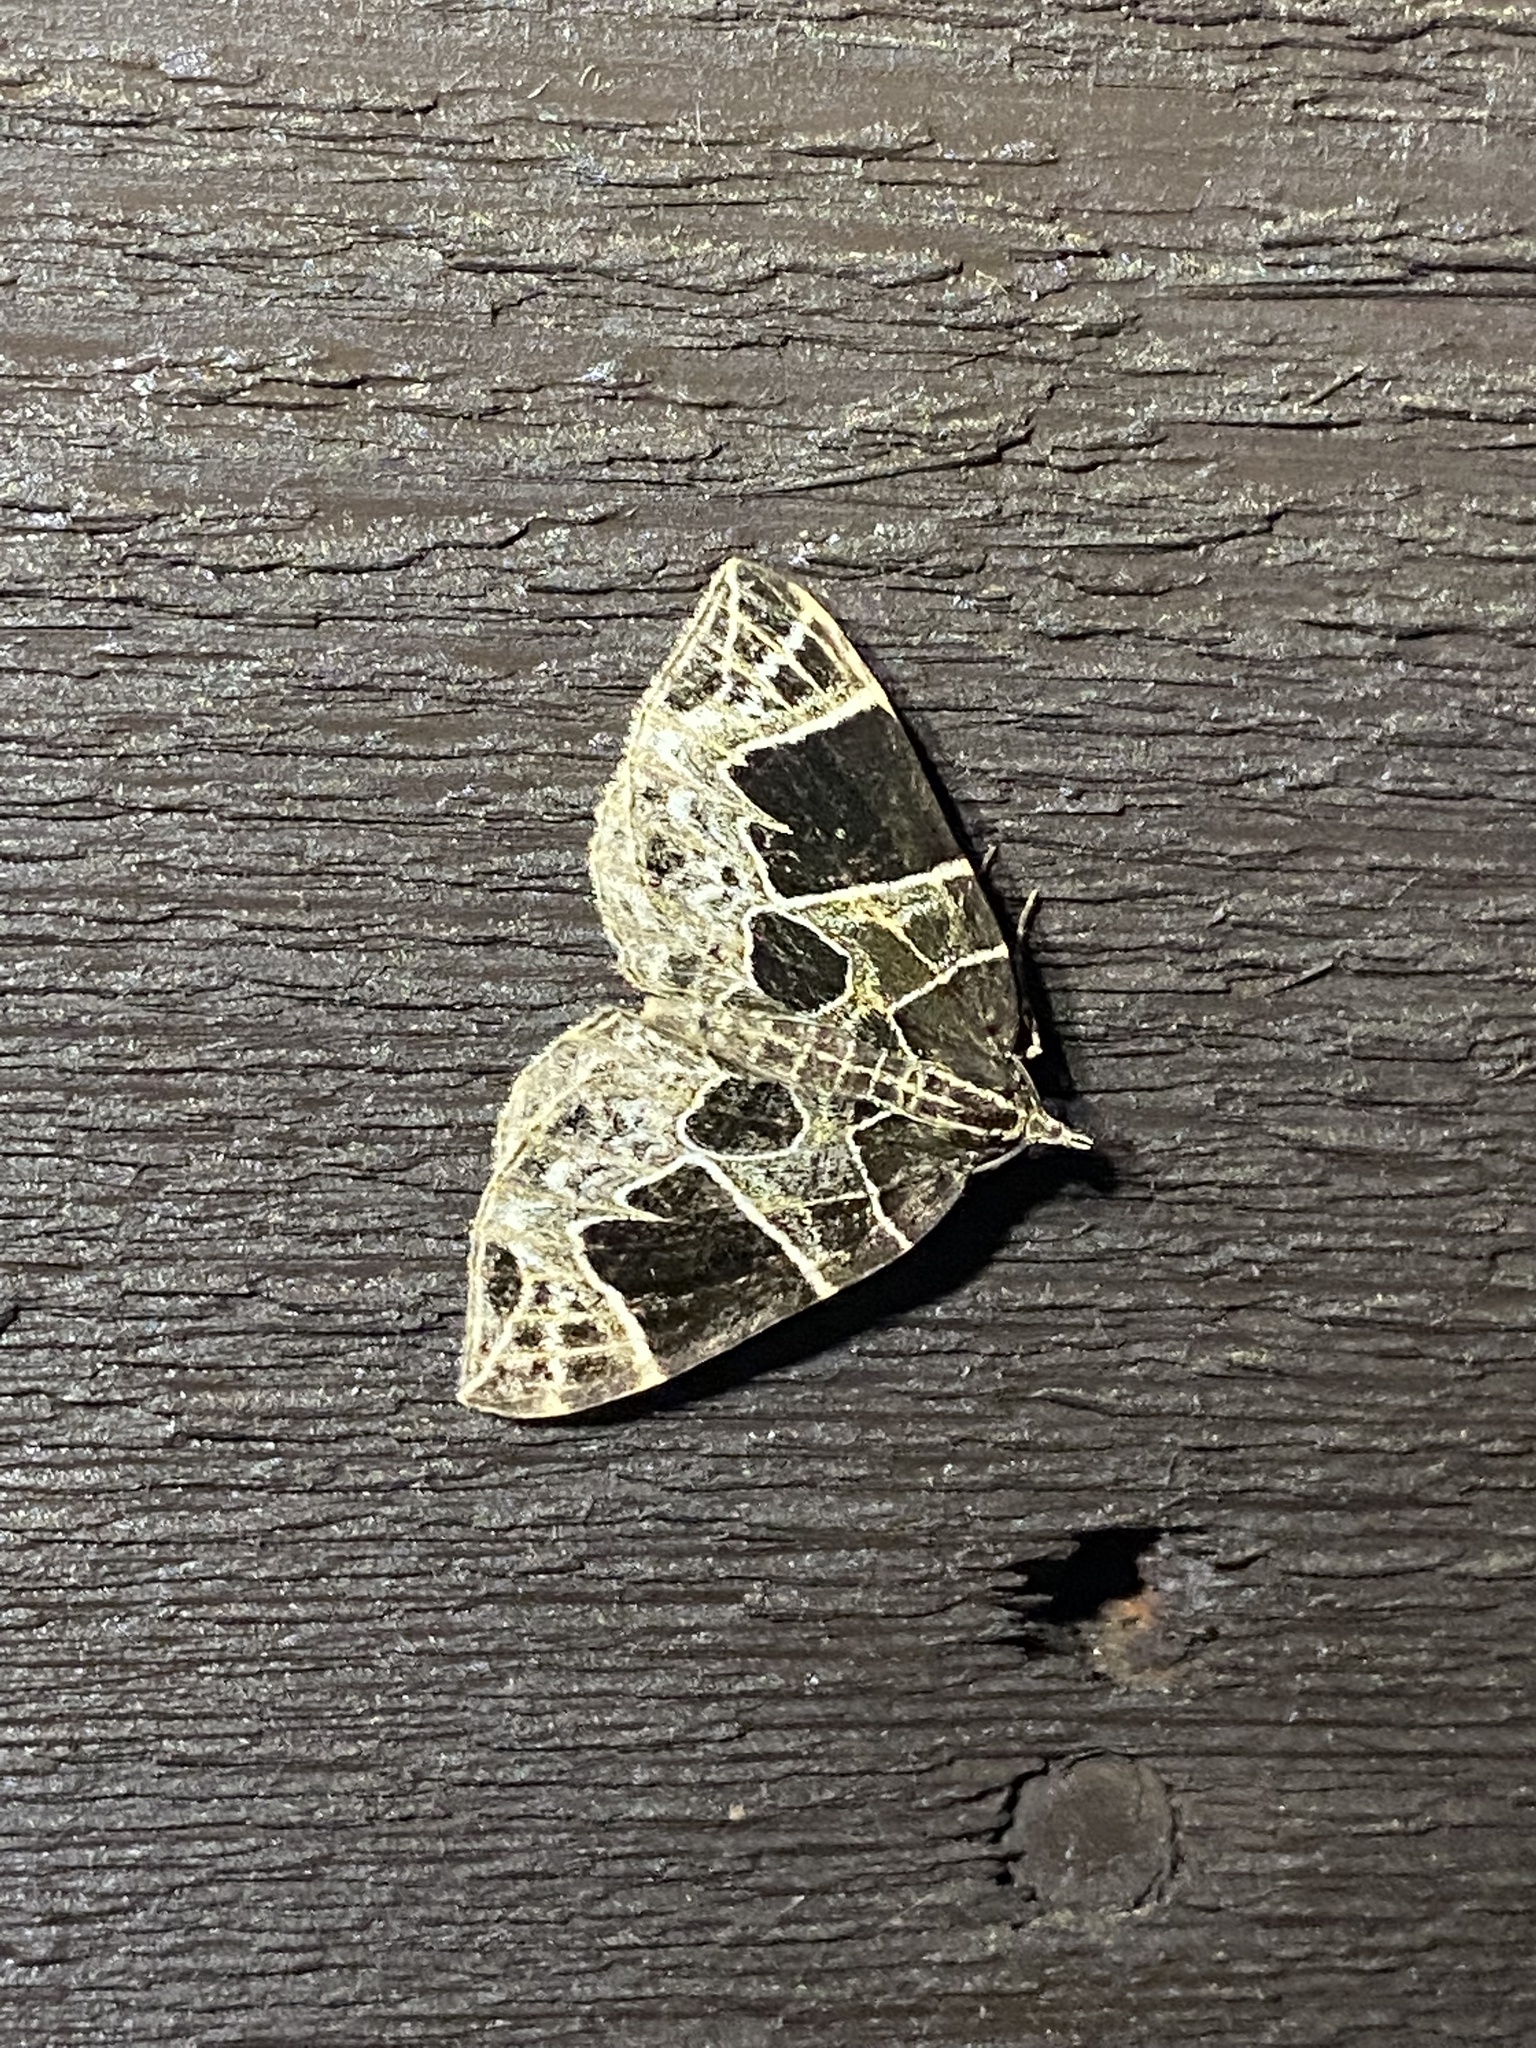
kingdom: Animalia
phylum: Arthropoda
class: Insecta
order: Lepidoptera
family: Geometridae
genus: Ecliptopera
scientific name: Ecliptopera atricolorata
